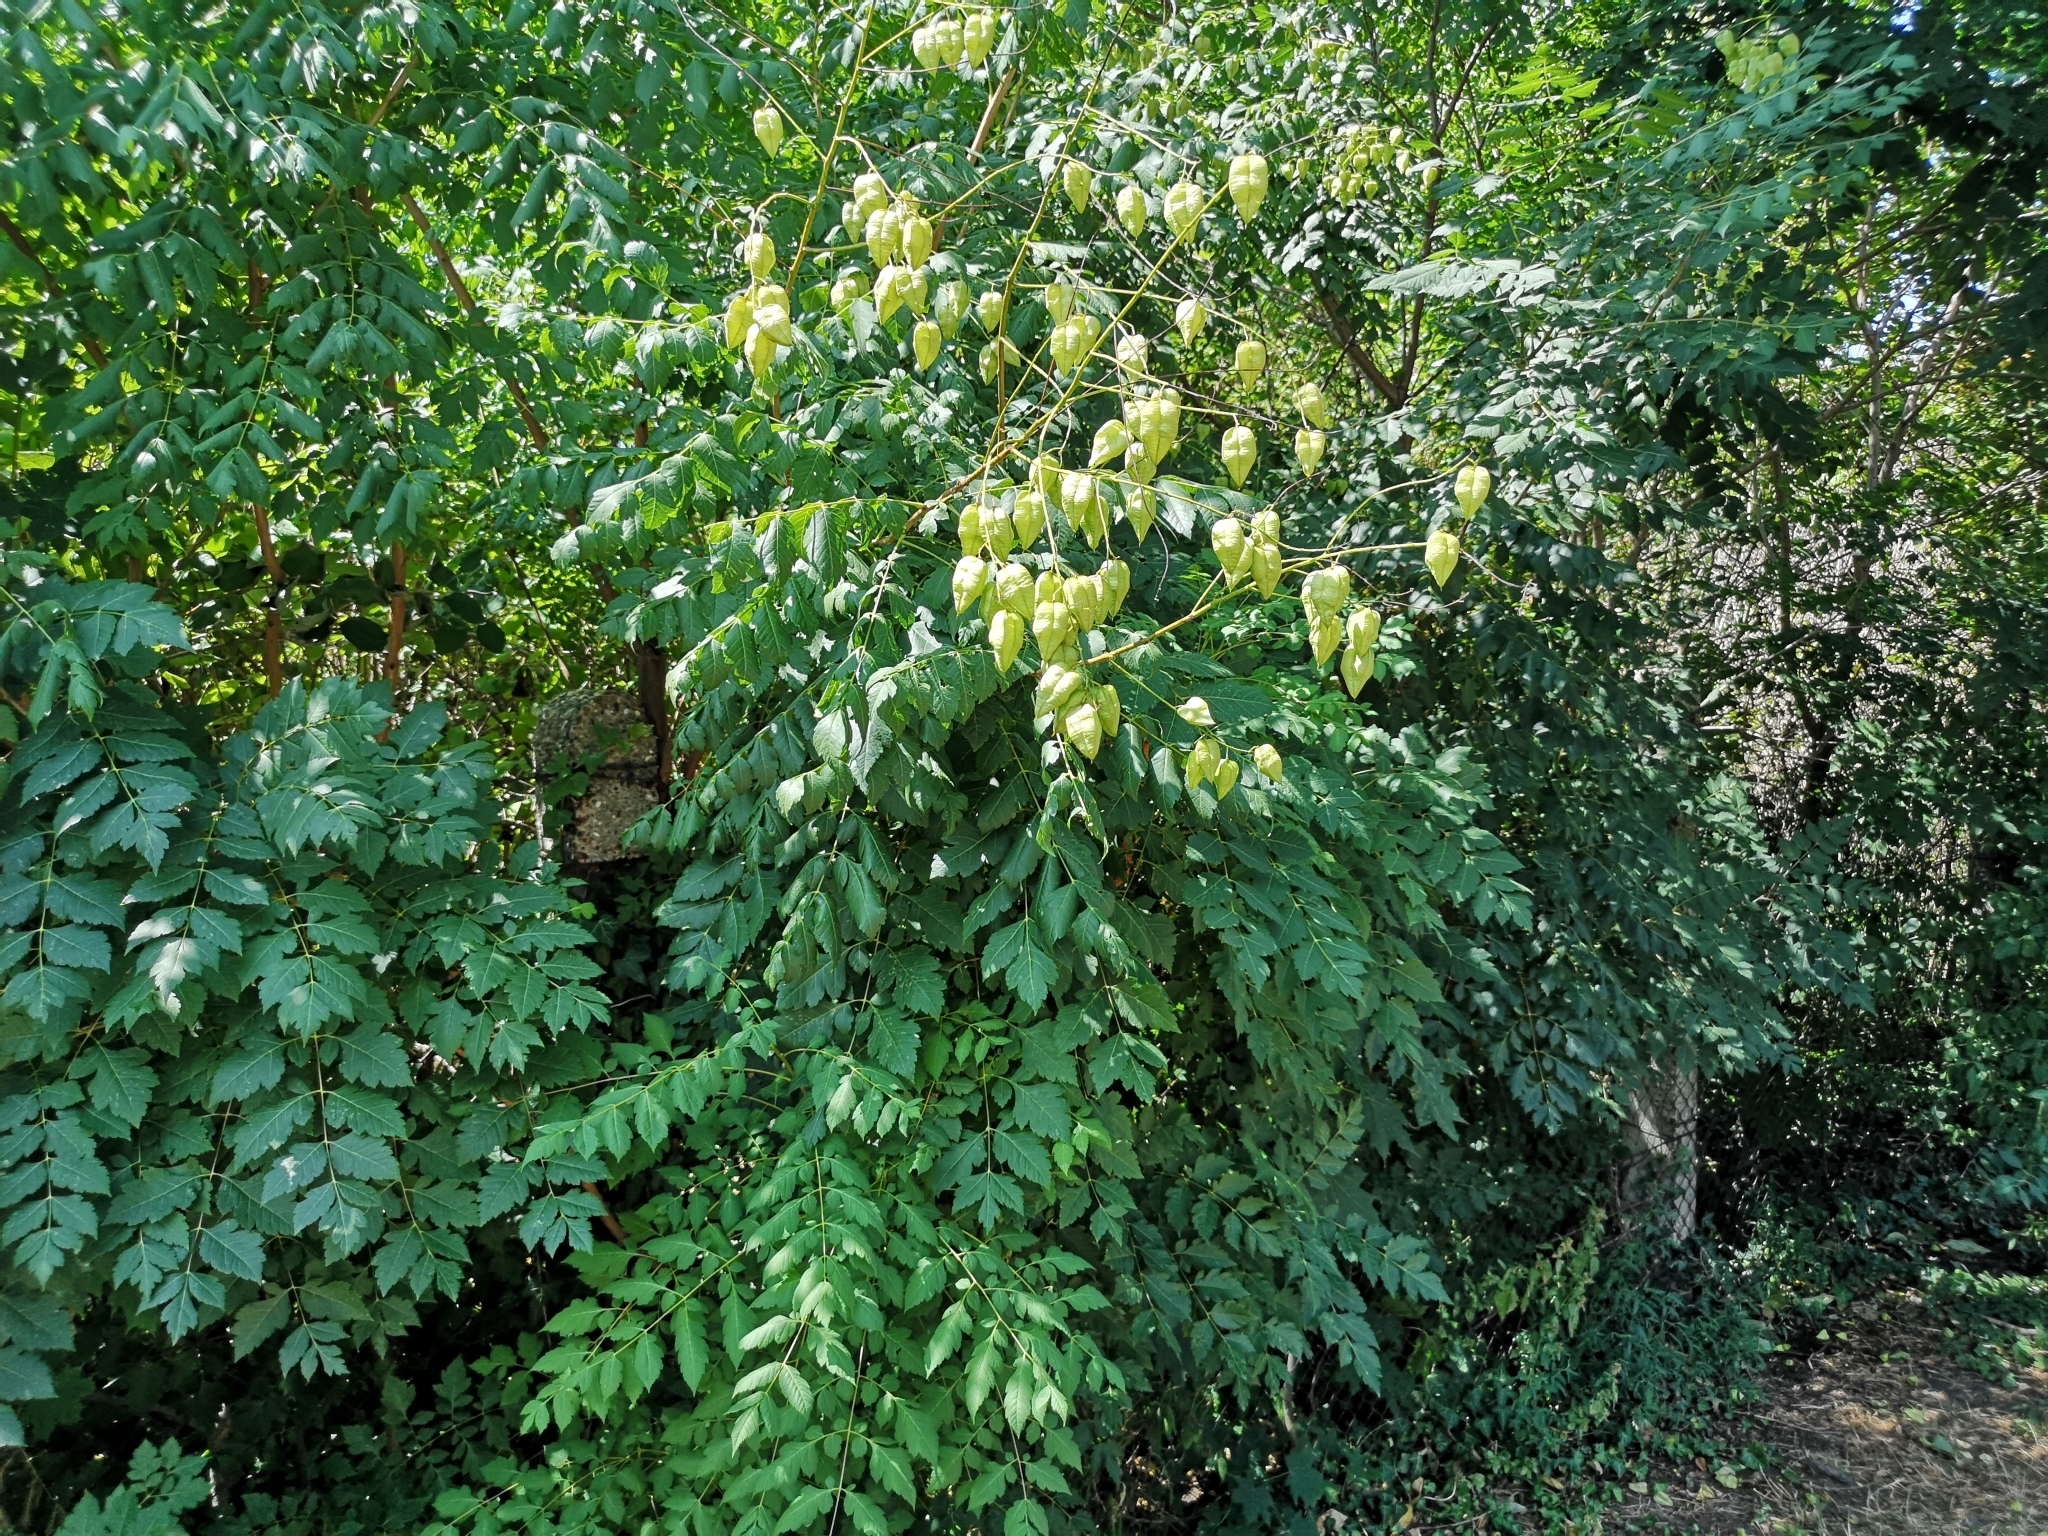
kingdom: Plantae
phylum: Tracheophyta
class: Magnoliopsida
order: Sapindales
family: Sapindaceae
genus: Koelreuteria
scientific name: Koelreuteria paniculata
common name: Pride-of-india
